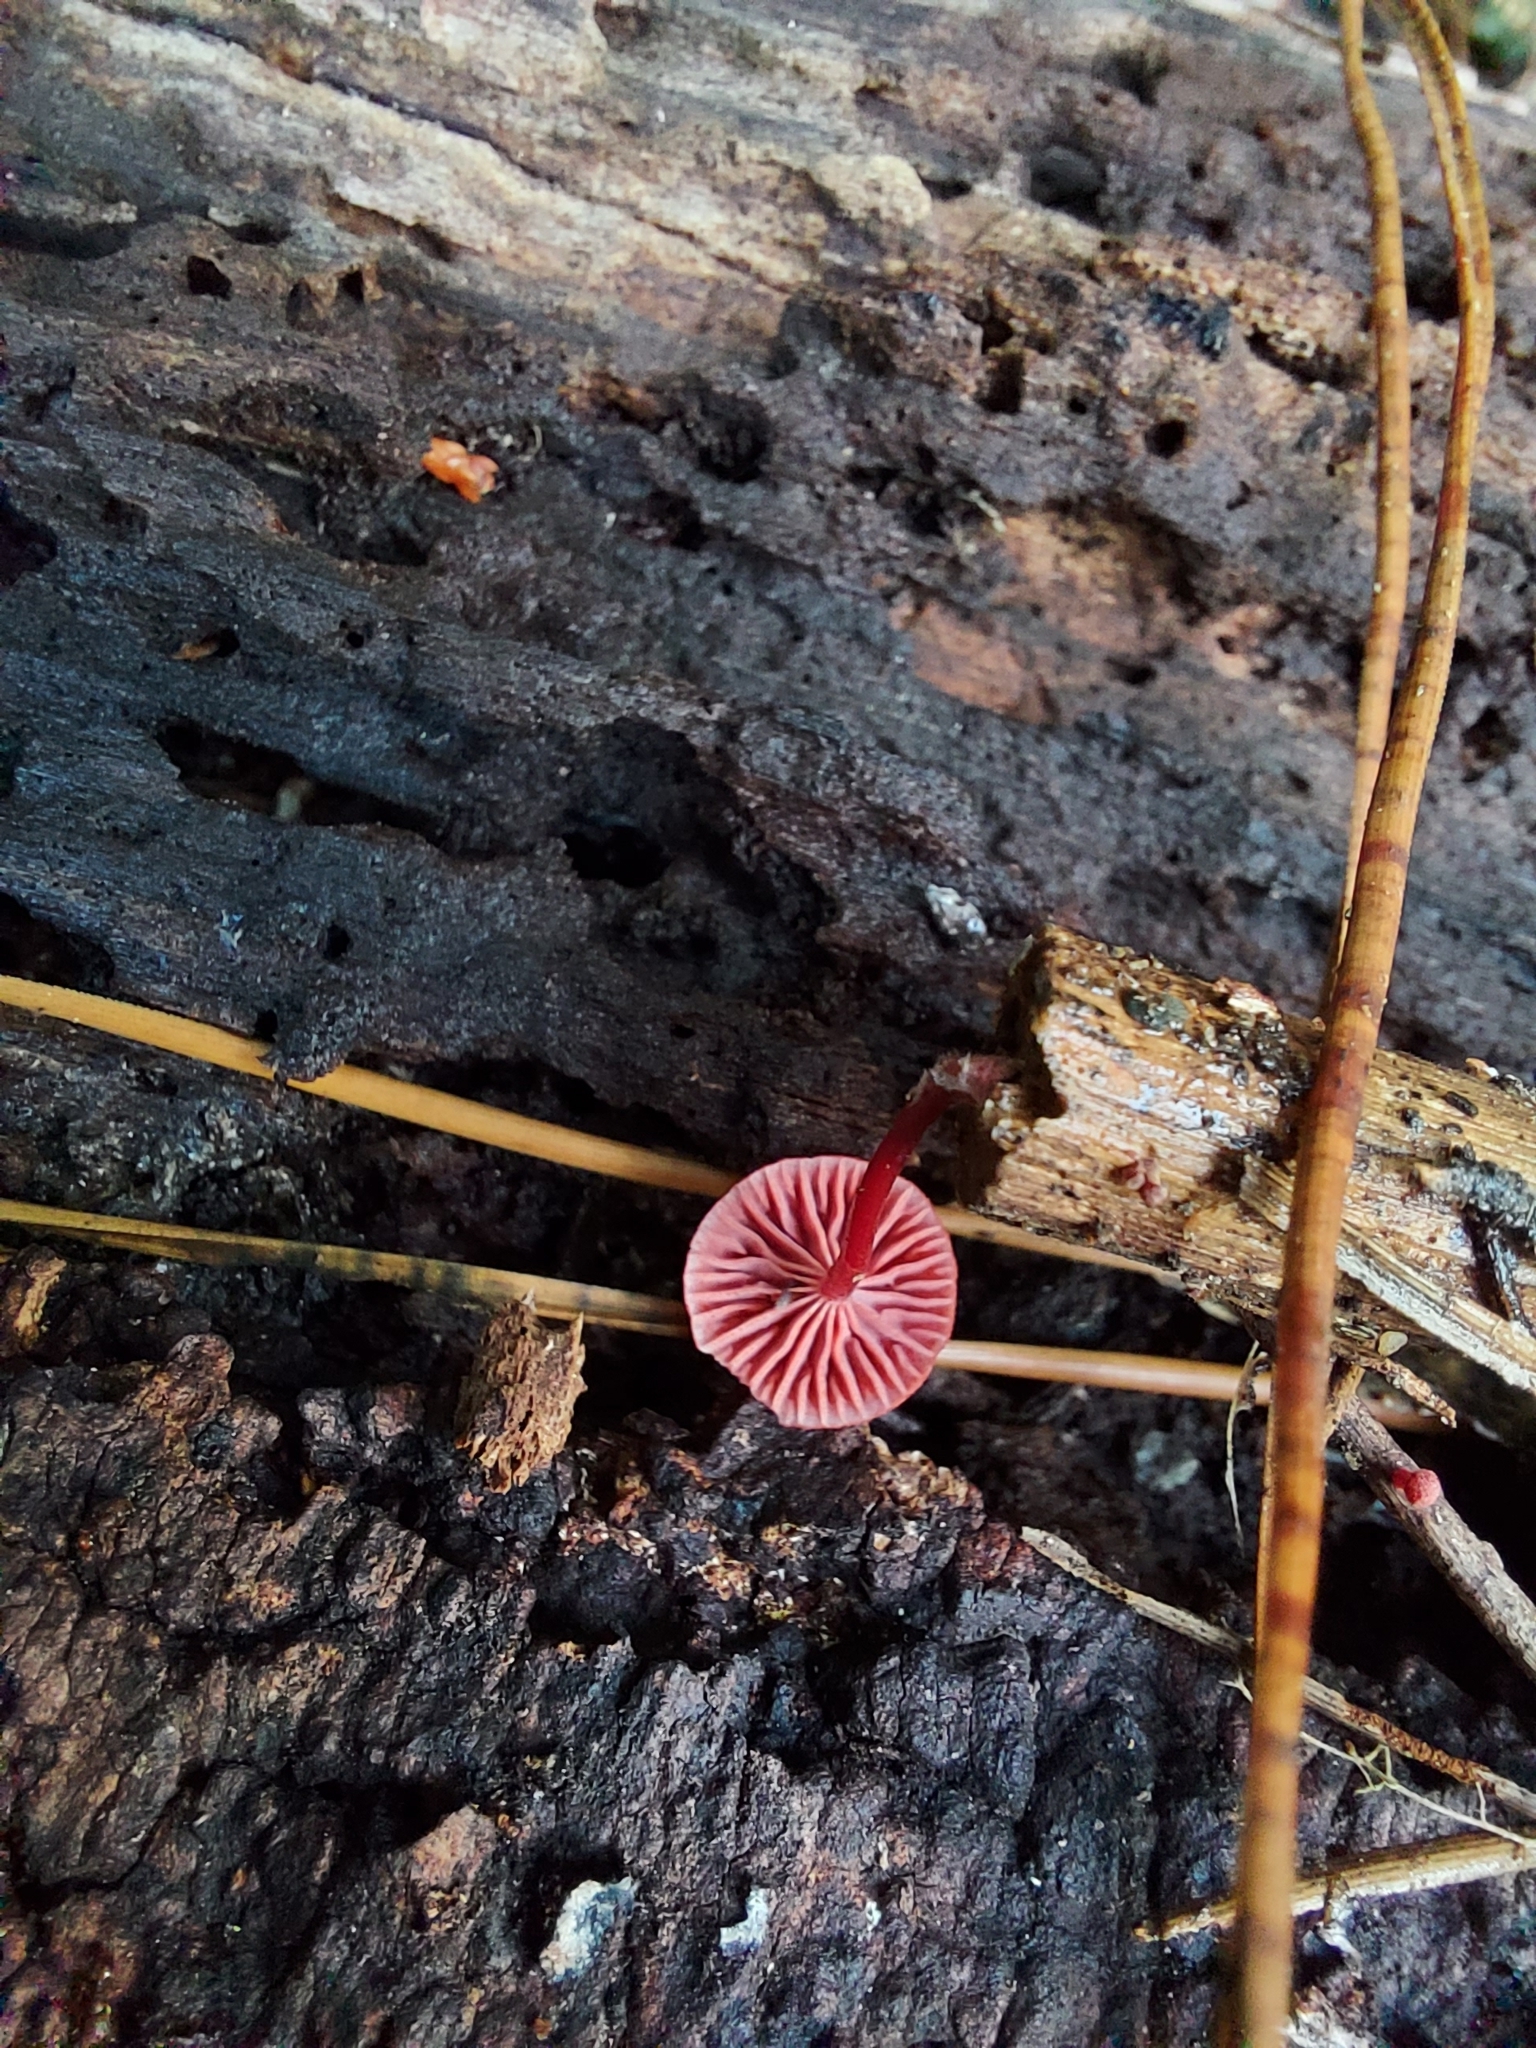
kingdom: Fungi
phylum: Basidiomycota
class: Agaricomycetes
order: Agaricales
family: Mycenaceae
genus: Cruentomycena
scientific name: Cruentomycena viscidocruenta
